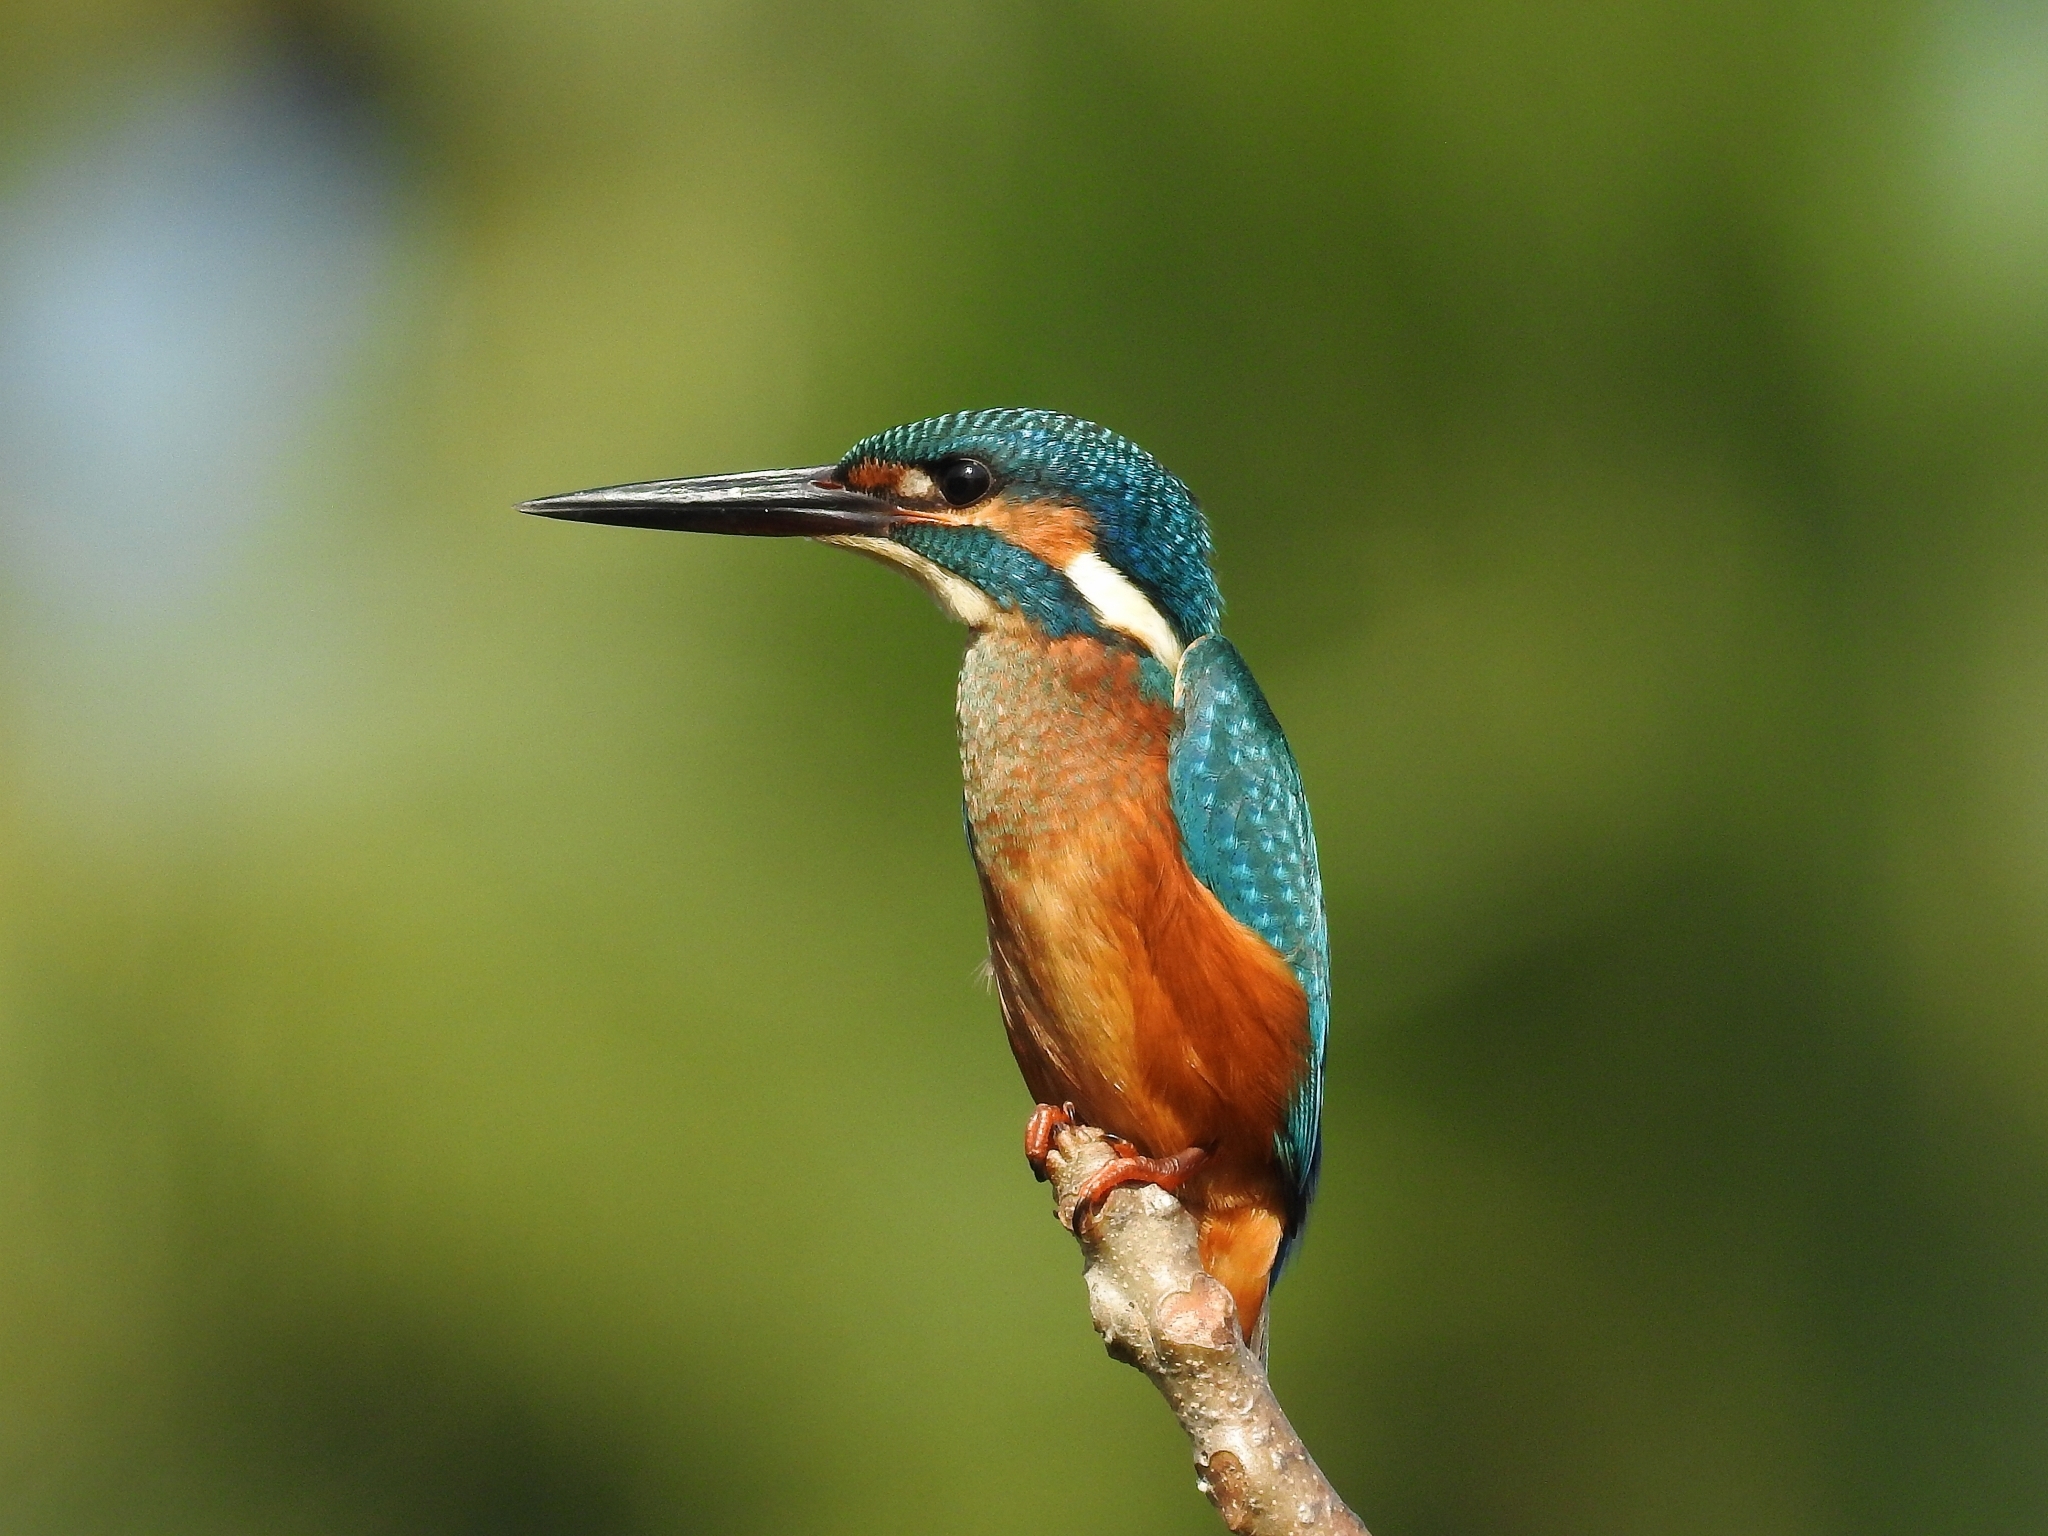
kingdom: Animalia
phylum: Chordata
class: Aves
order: Coraciiformes
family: Alcedinidae
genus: Alcedo
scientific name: Alcedo atthis
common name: Common kingfisher
